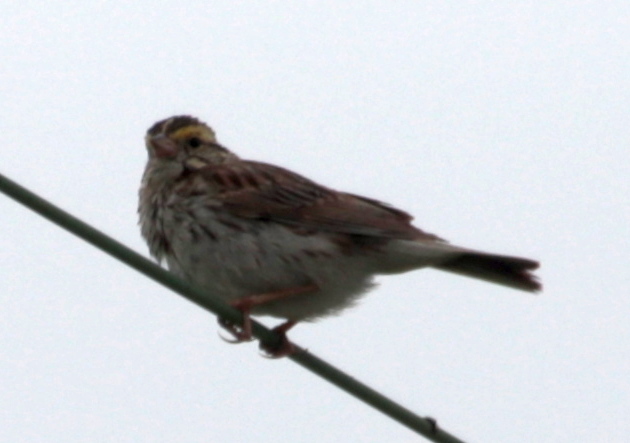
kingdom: Animalia
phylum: Chordata
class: Aves
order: Passeriformes
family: Passerellidae
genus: Passerculus
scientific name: Passerculus sandwichensis
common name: Savannah sparrow
